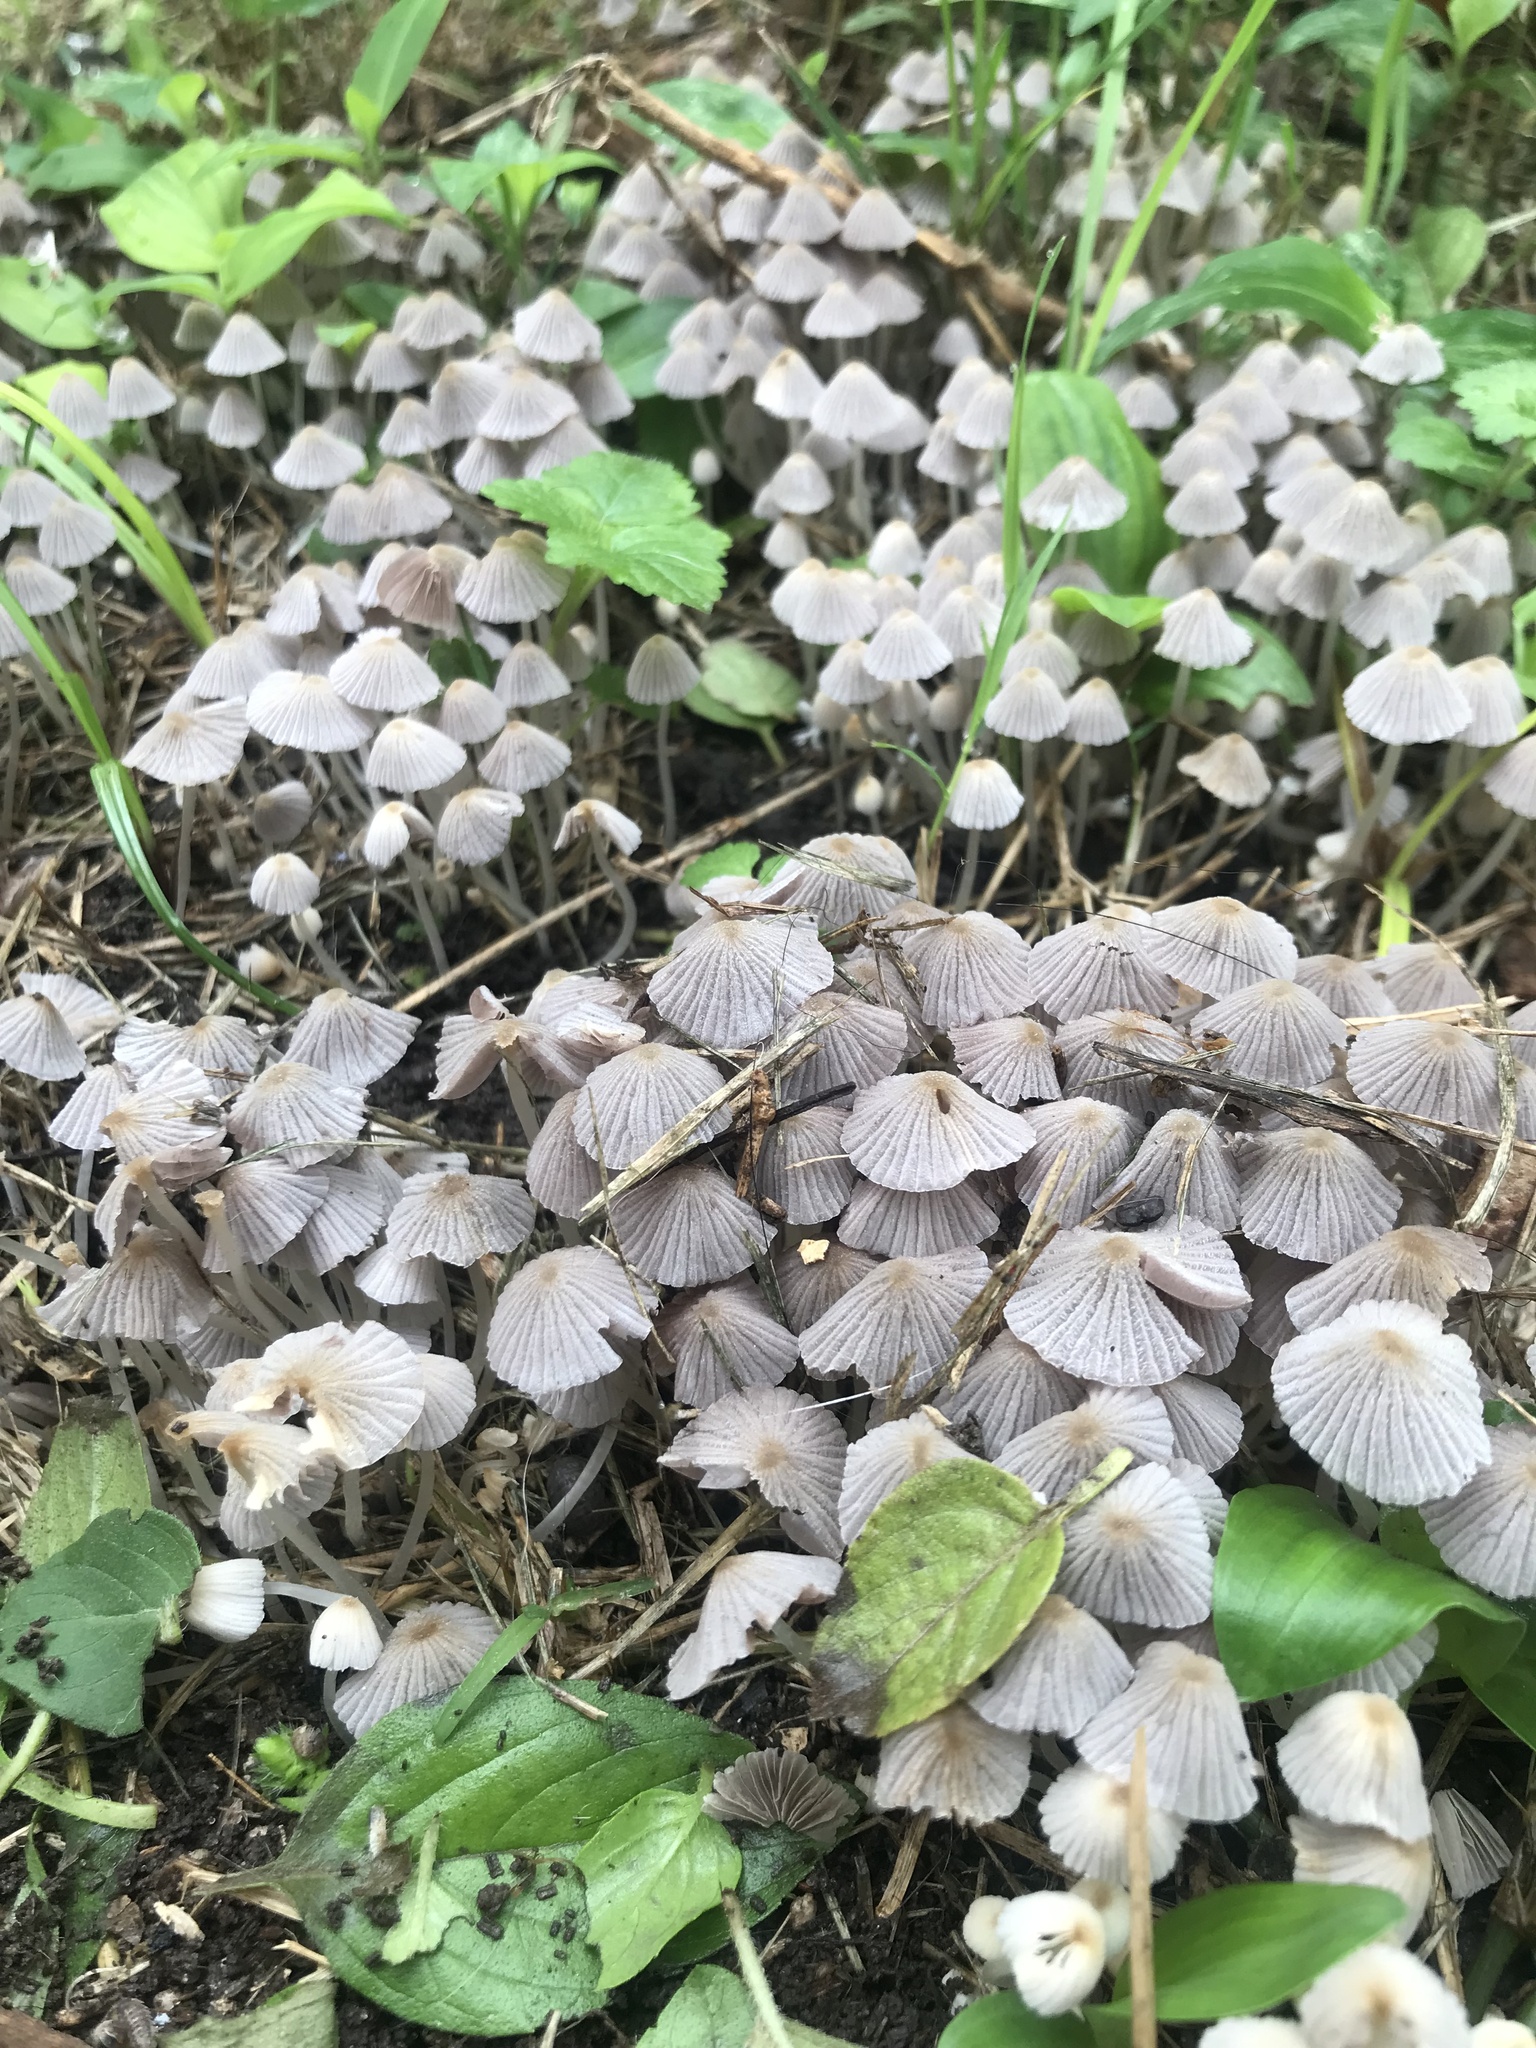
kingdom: Fungi
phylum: Basidiomycota
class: Agaricomycetes
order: Agaricales
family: Psathyrellaceae
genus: Coprinellus
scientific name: Coprinellus disseminatus
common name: Fairies' bonnets
